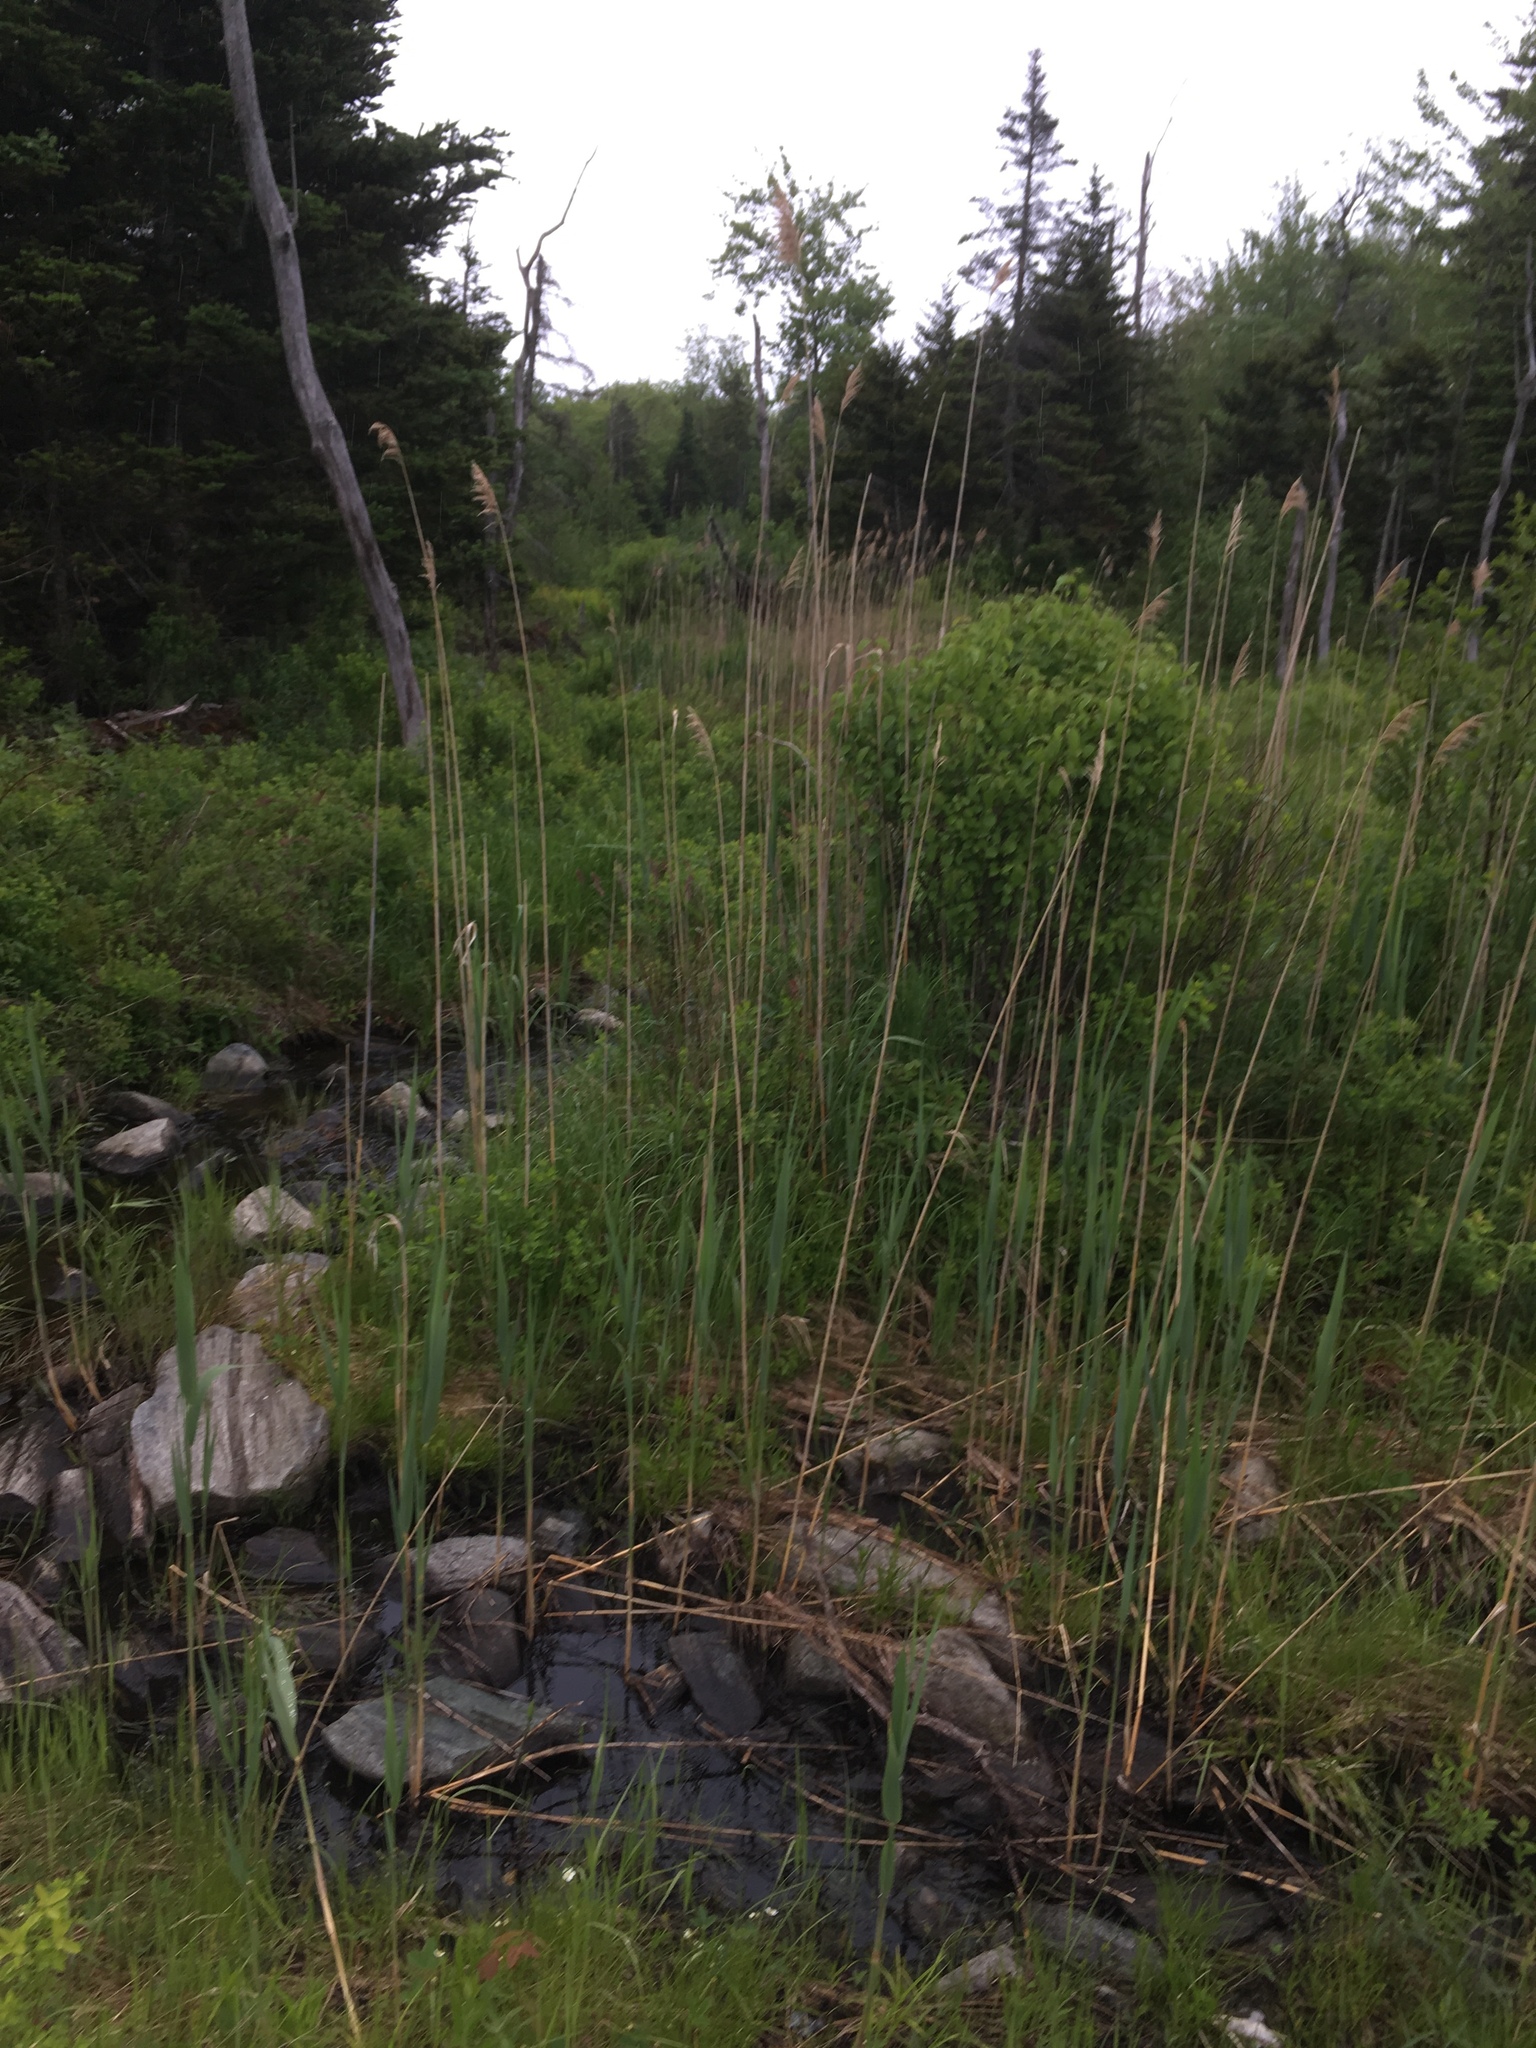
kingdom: Plantae
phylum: Tracheophyta
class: Liliopsida
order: Poales
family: Poaceae
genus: Phragmites
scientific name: Phragmites australis
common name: Common reed
